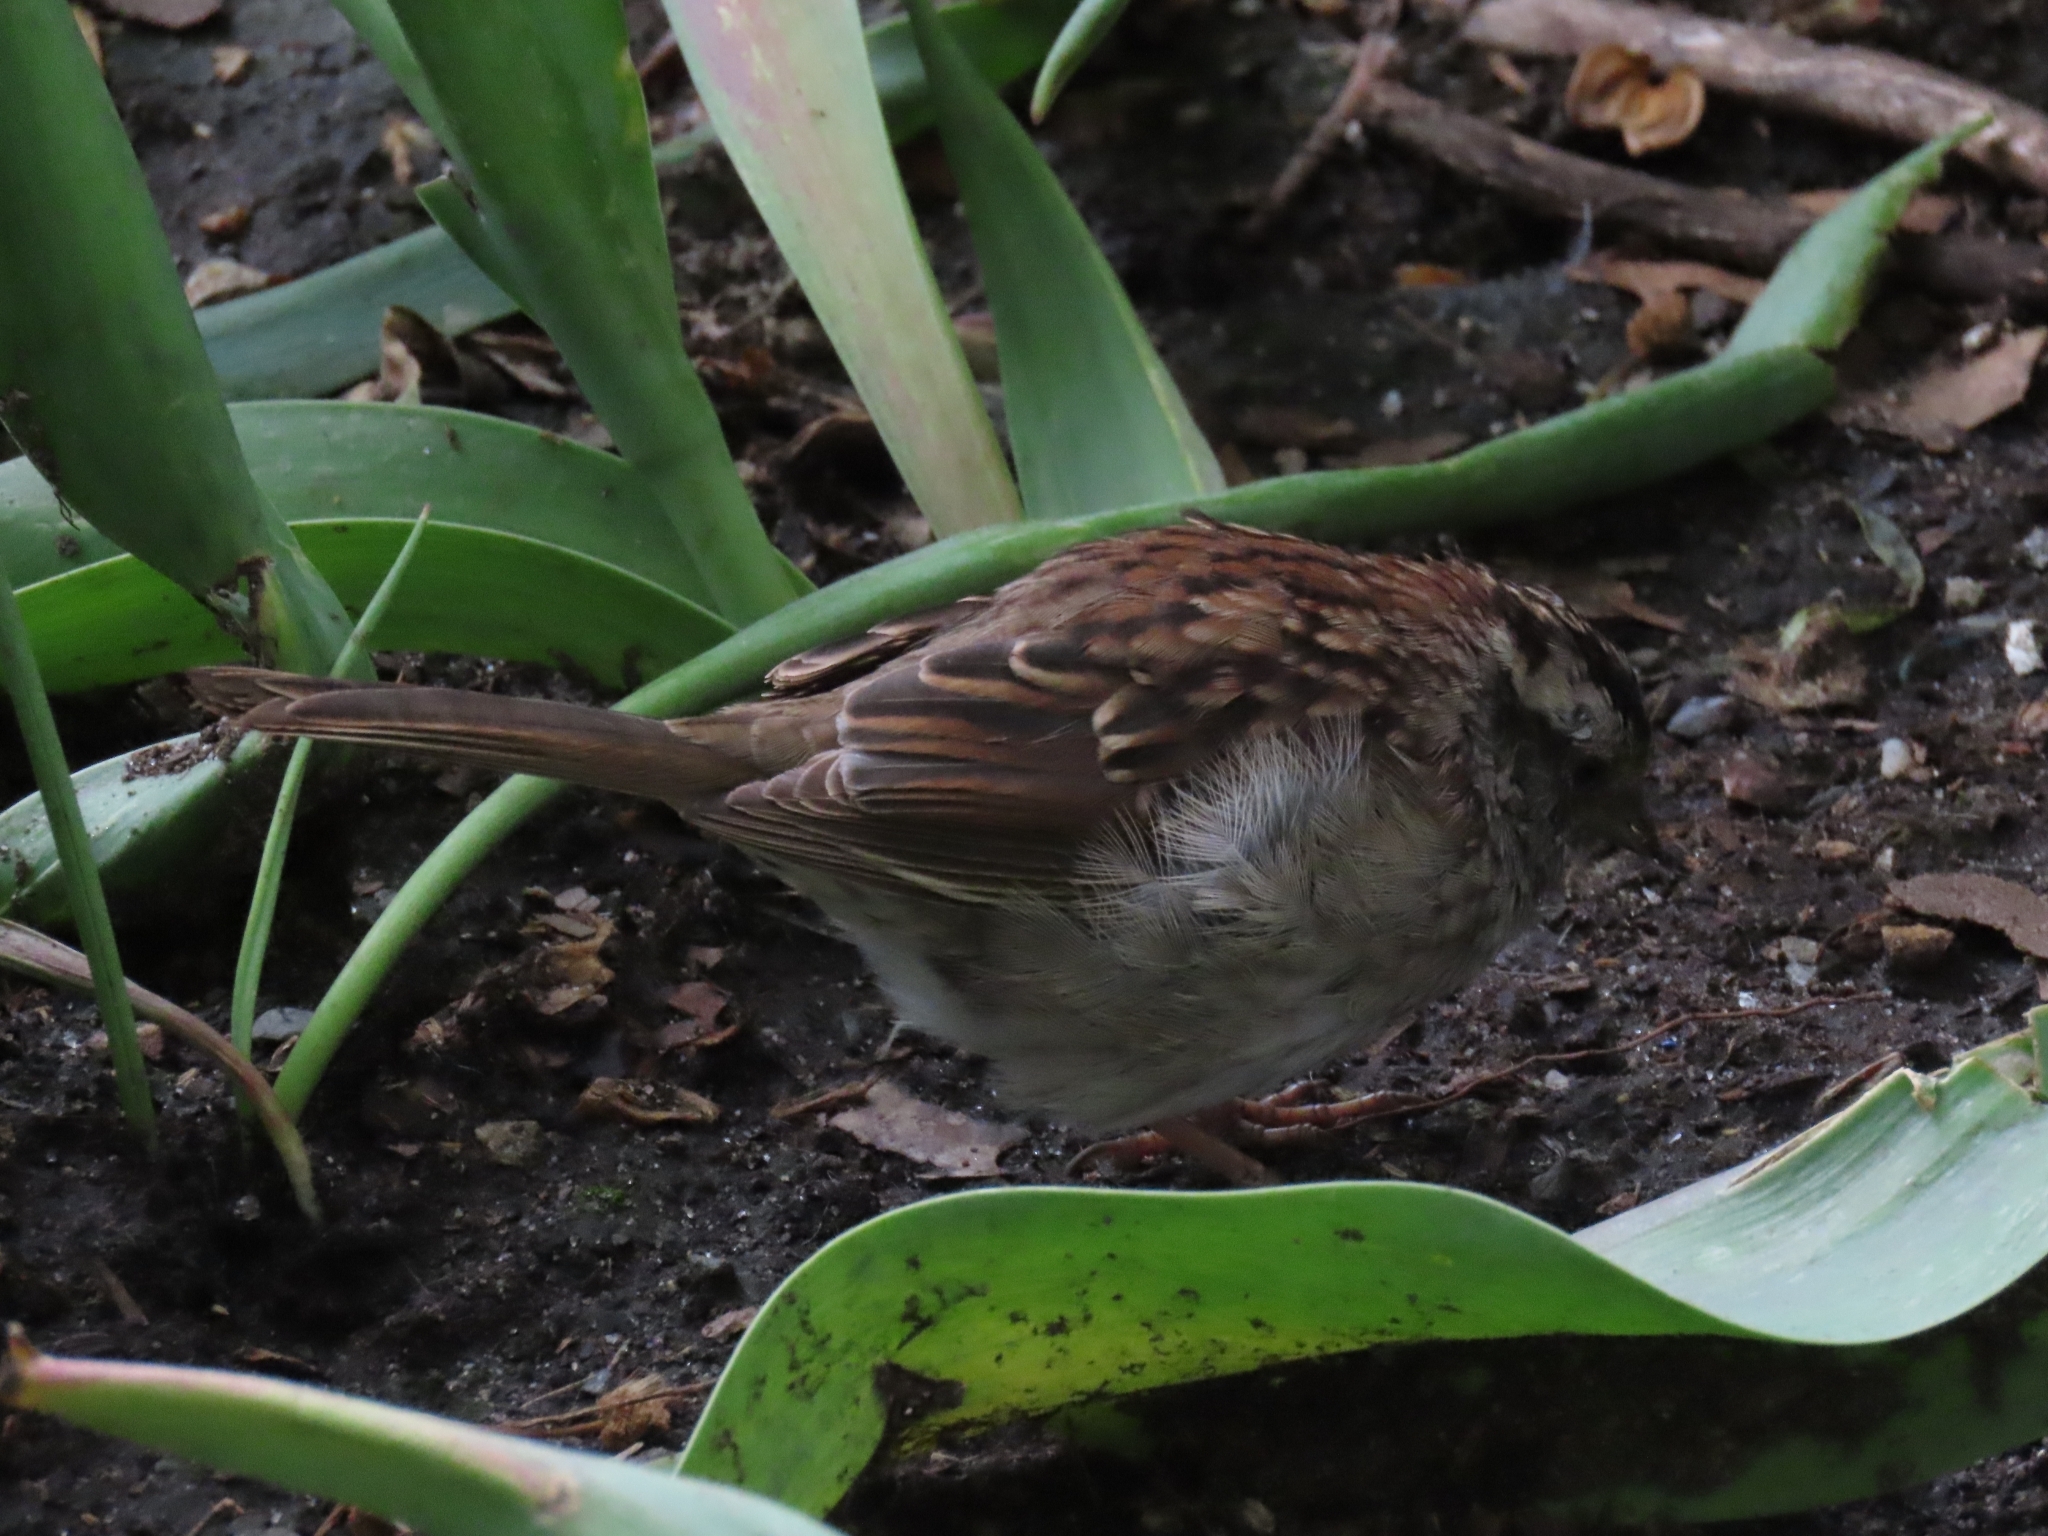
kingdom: Animalia
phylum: Chordata
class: Aves
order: Passeriformes
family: Passerellidae
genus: Zonotrichia
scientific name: Zonotrichia albicollis
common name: White-throated sparrow
